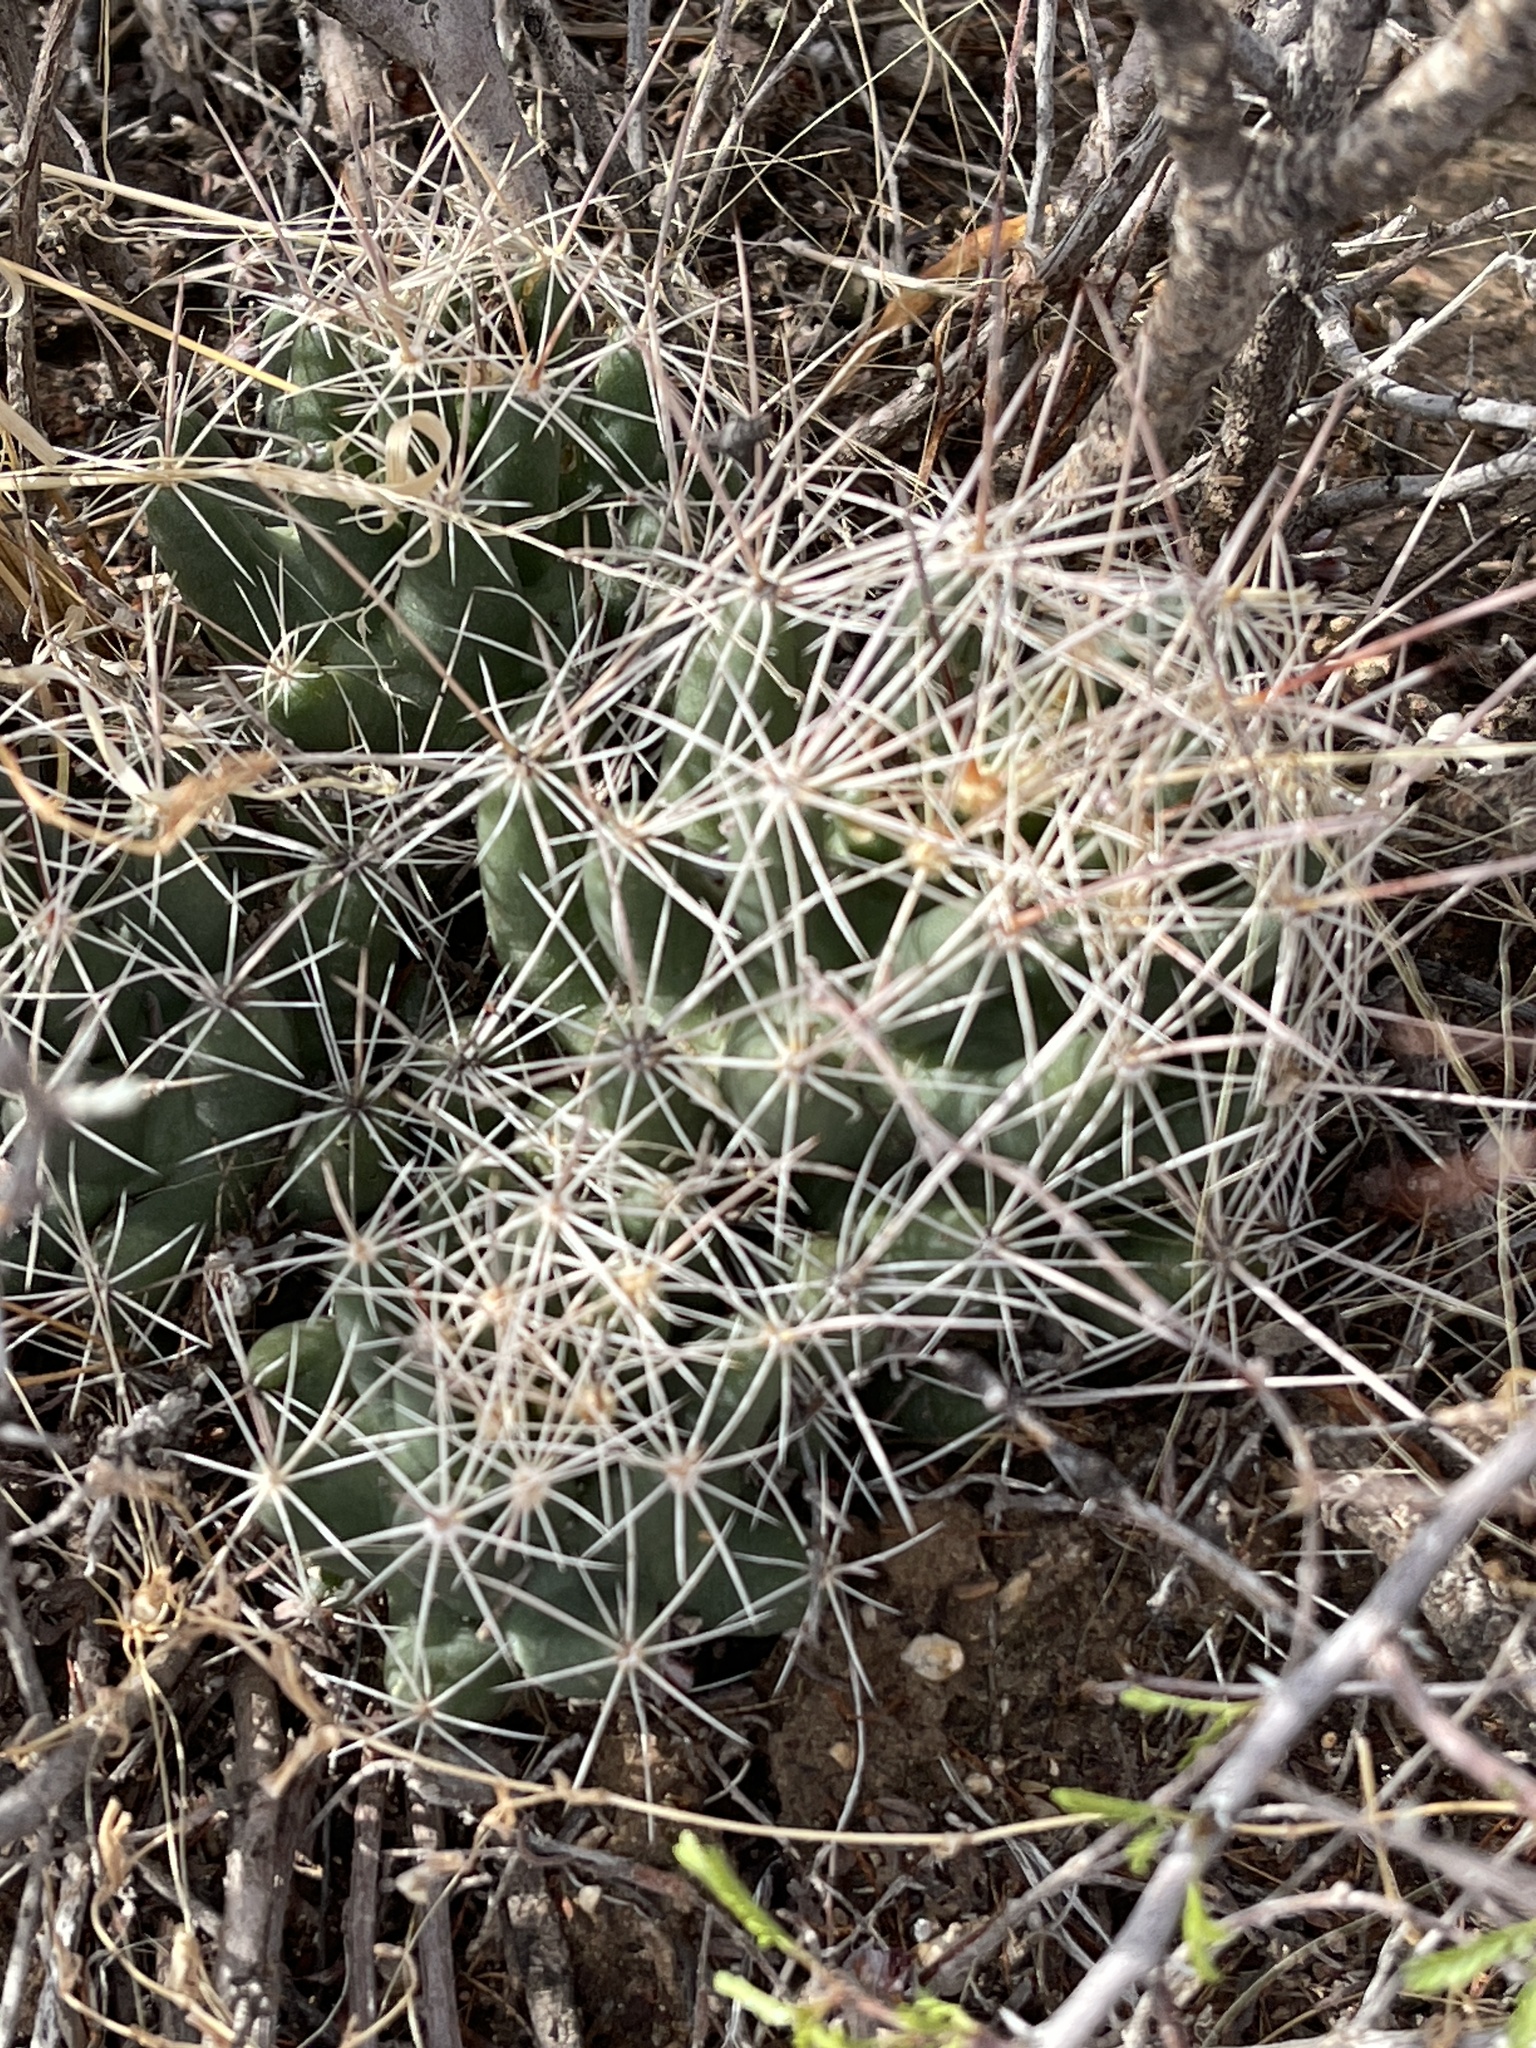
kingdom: Plantae
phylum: Tracheophyta
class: Magnoliopsida
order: Caryophyllales
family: Cactaceae
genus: Coryphantha
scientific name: Coryphantha macromeris
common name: Nipple beehive cactus
